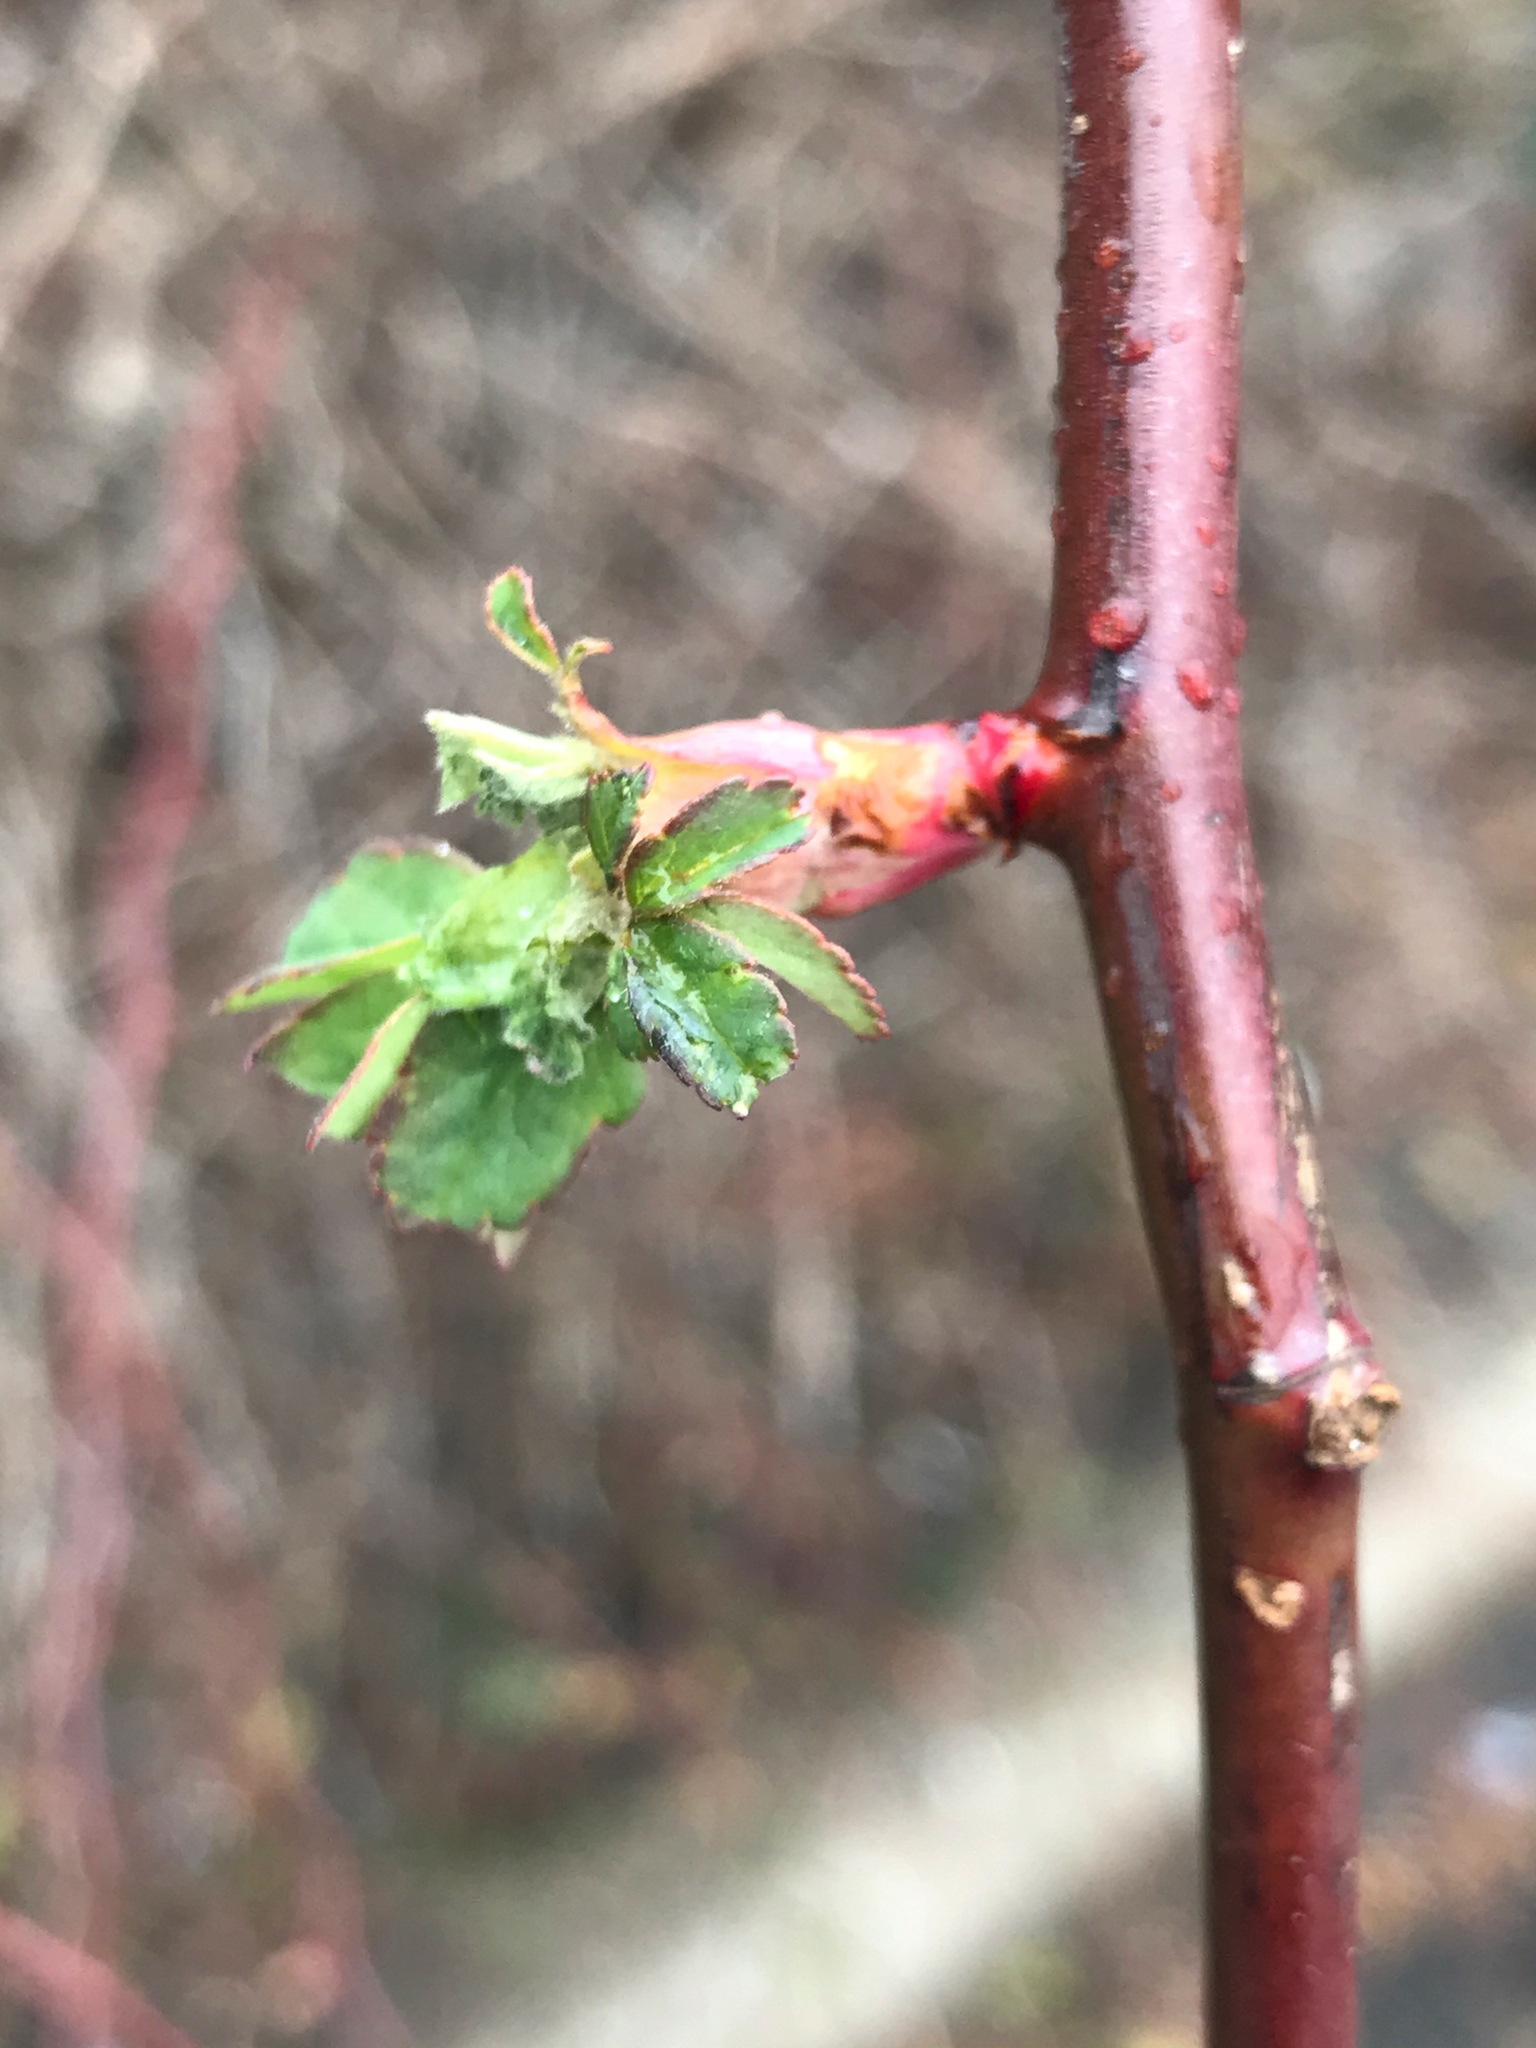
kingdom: Plantae
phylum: Tracheophyta
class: Magnoliopsida
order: Rosales
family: Rosaceae
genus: Rosa
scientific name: Rosa multiflora
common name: Multiflora rose
